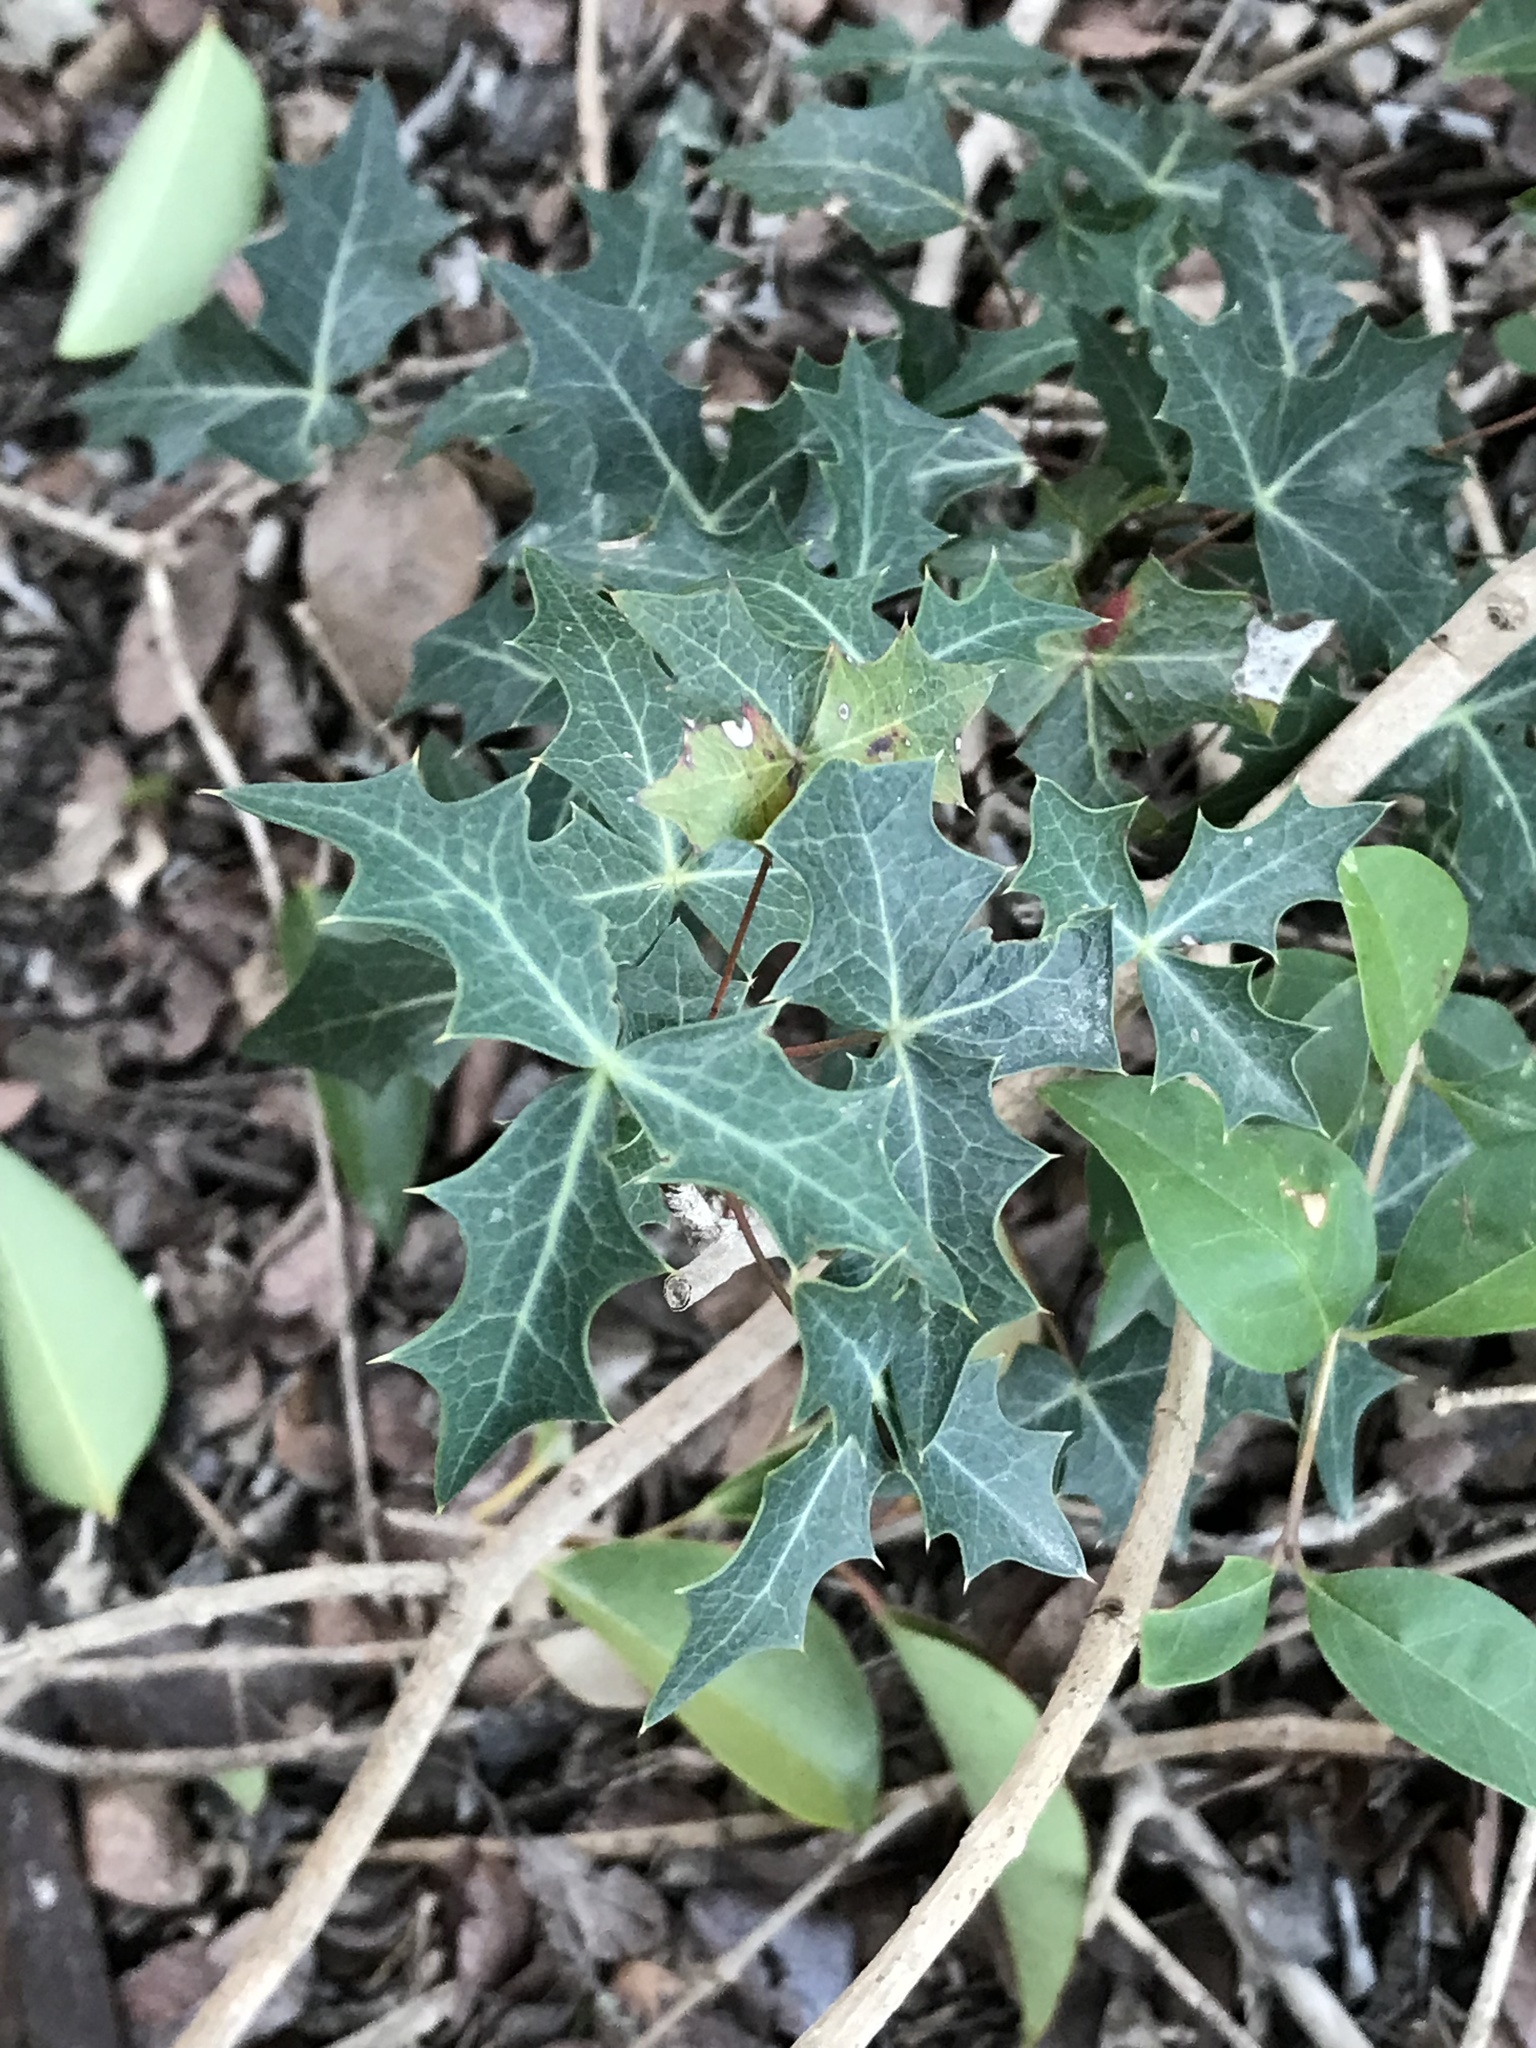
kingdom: Plantae
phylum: Tracheophyta
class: Magnoliopsida
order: Ranunculales
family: Berberidaceae
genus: Alloberberis
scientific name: Alloberberis trifoliolata
